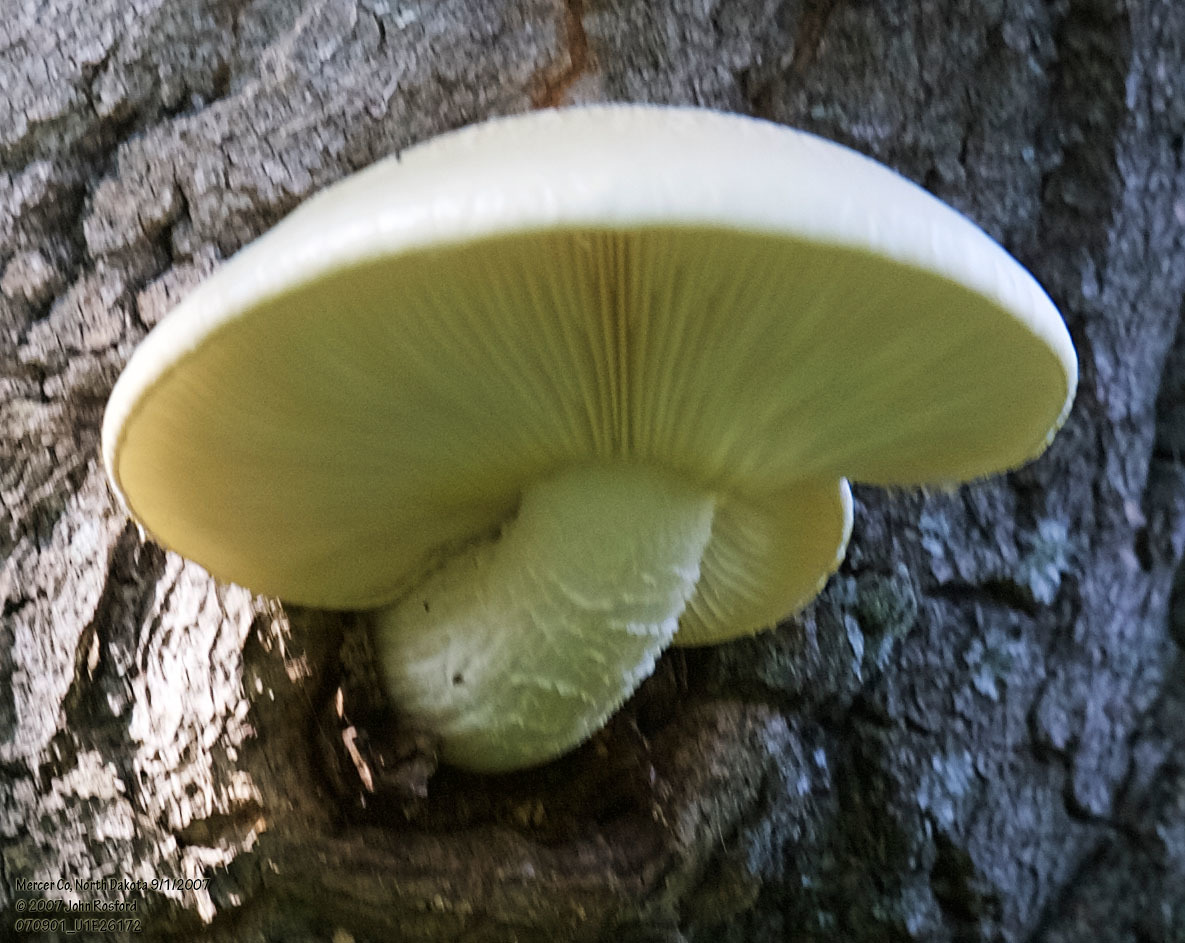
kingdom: Fungi
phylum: Basidiomycota
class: Agaricomycetes
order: Agaricales
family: Lyophyllaceae
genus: Hypsizygus
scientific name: Hypsizygus ulmarius
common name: Elm leech
